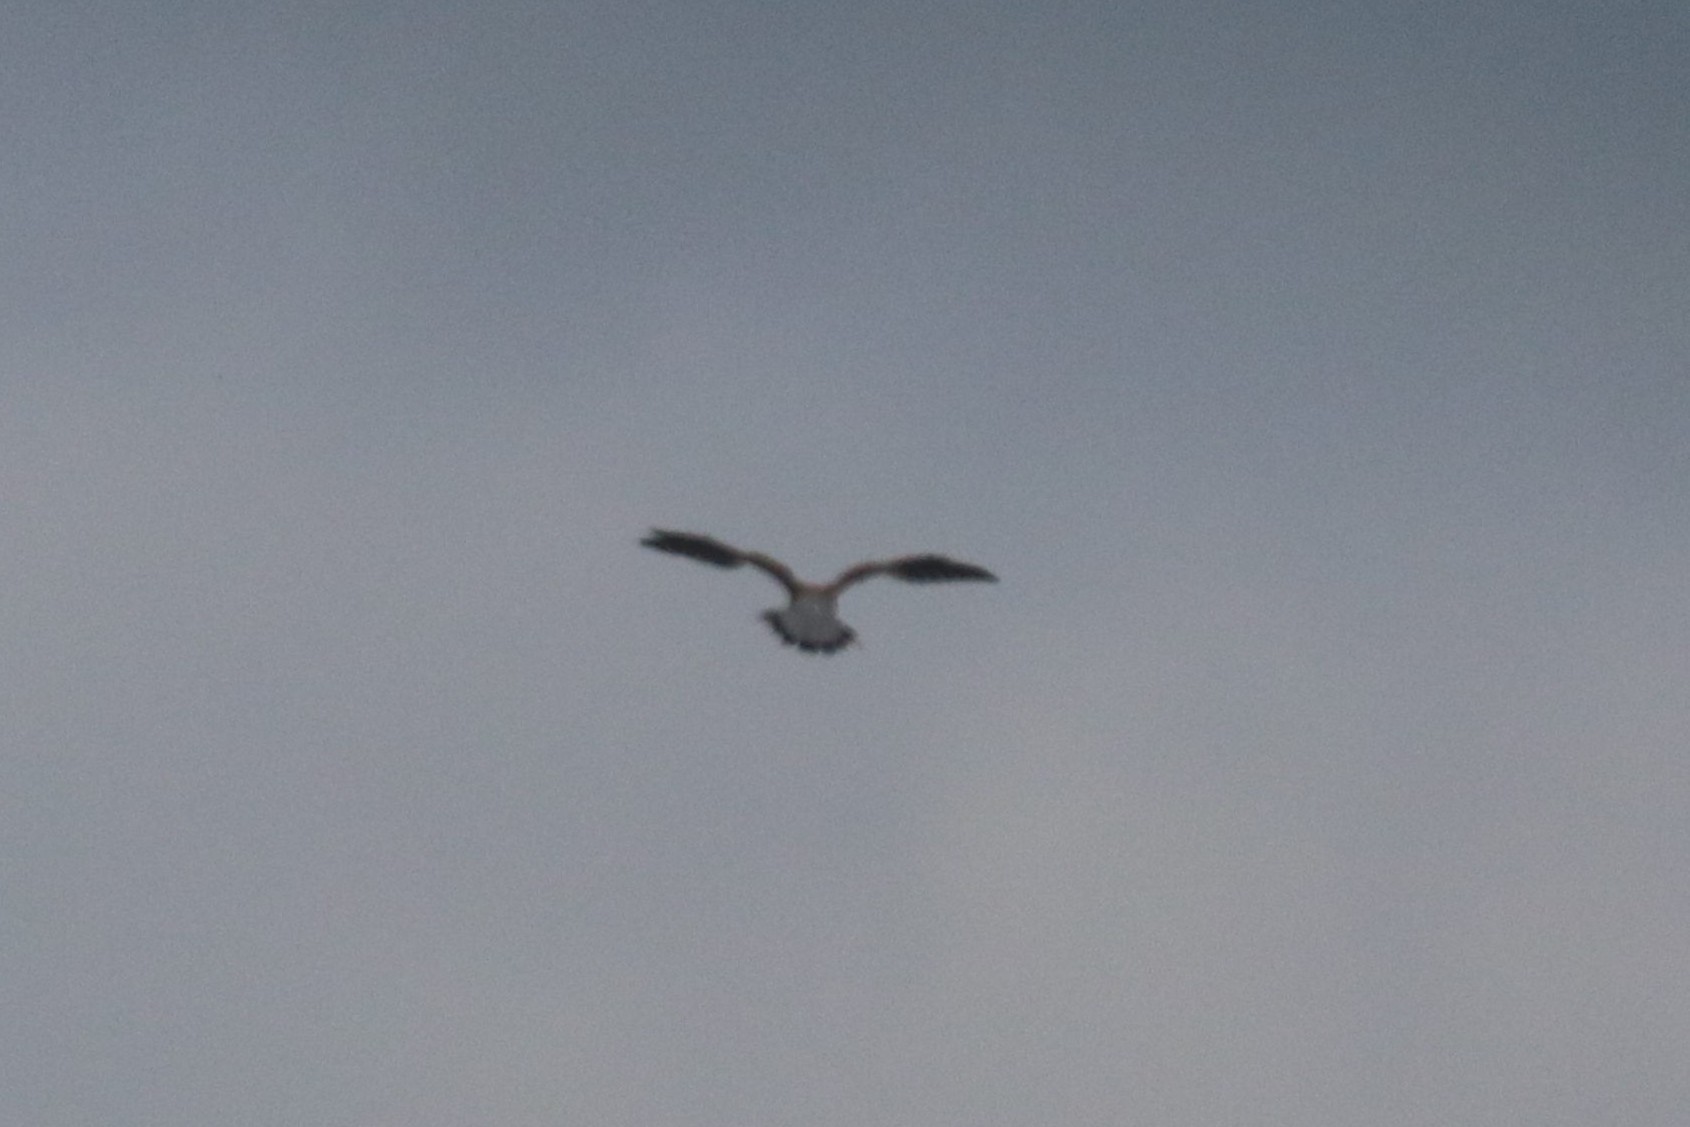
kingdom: Animalia
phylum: Chordata
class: Aves
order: Falconiformes
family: Falconidae
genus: Falco
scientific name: Falco tinnunculus
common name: Common kestrel
